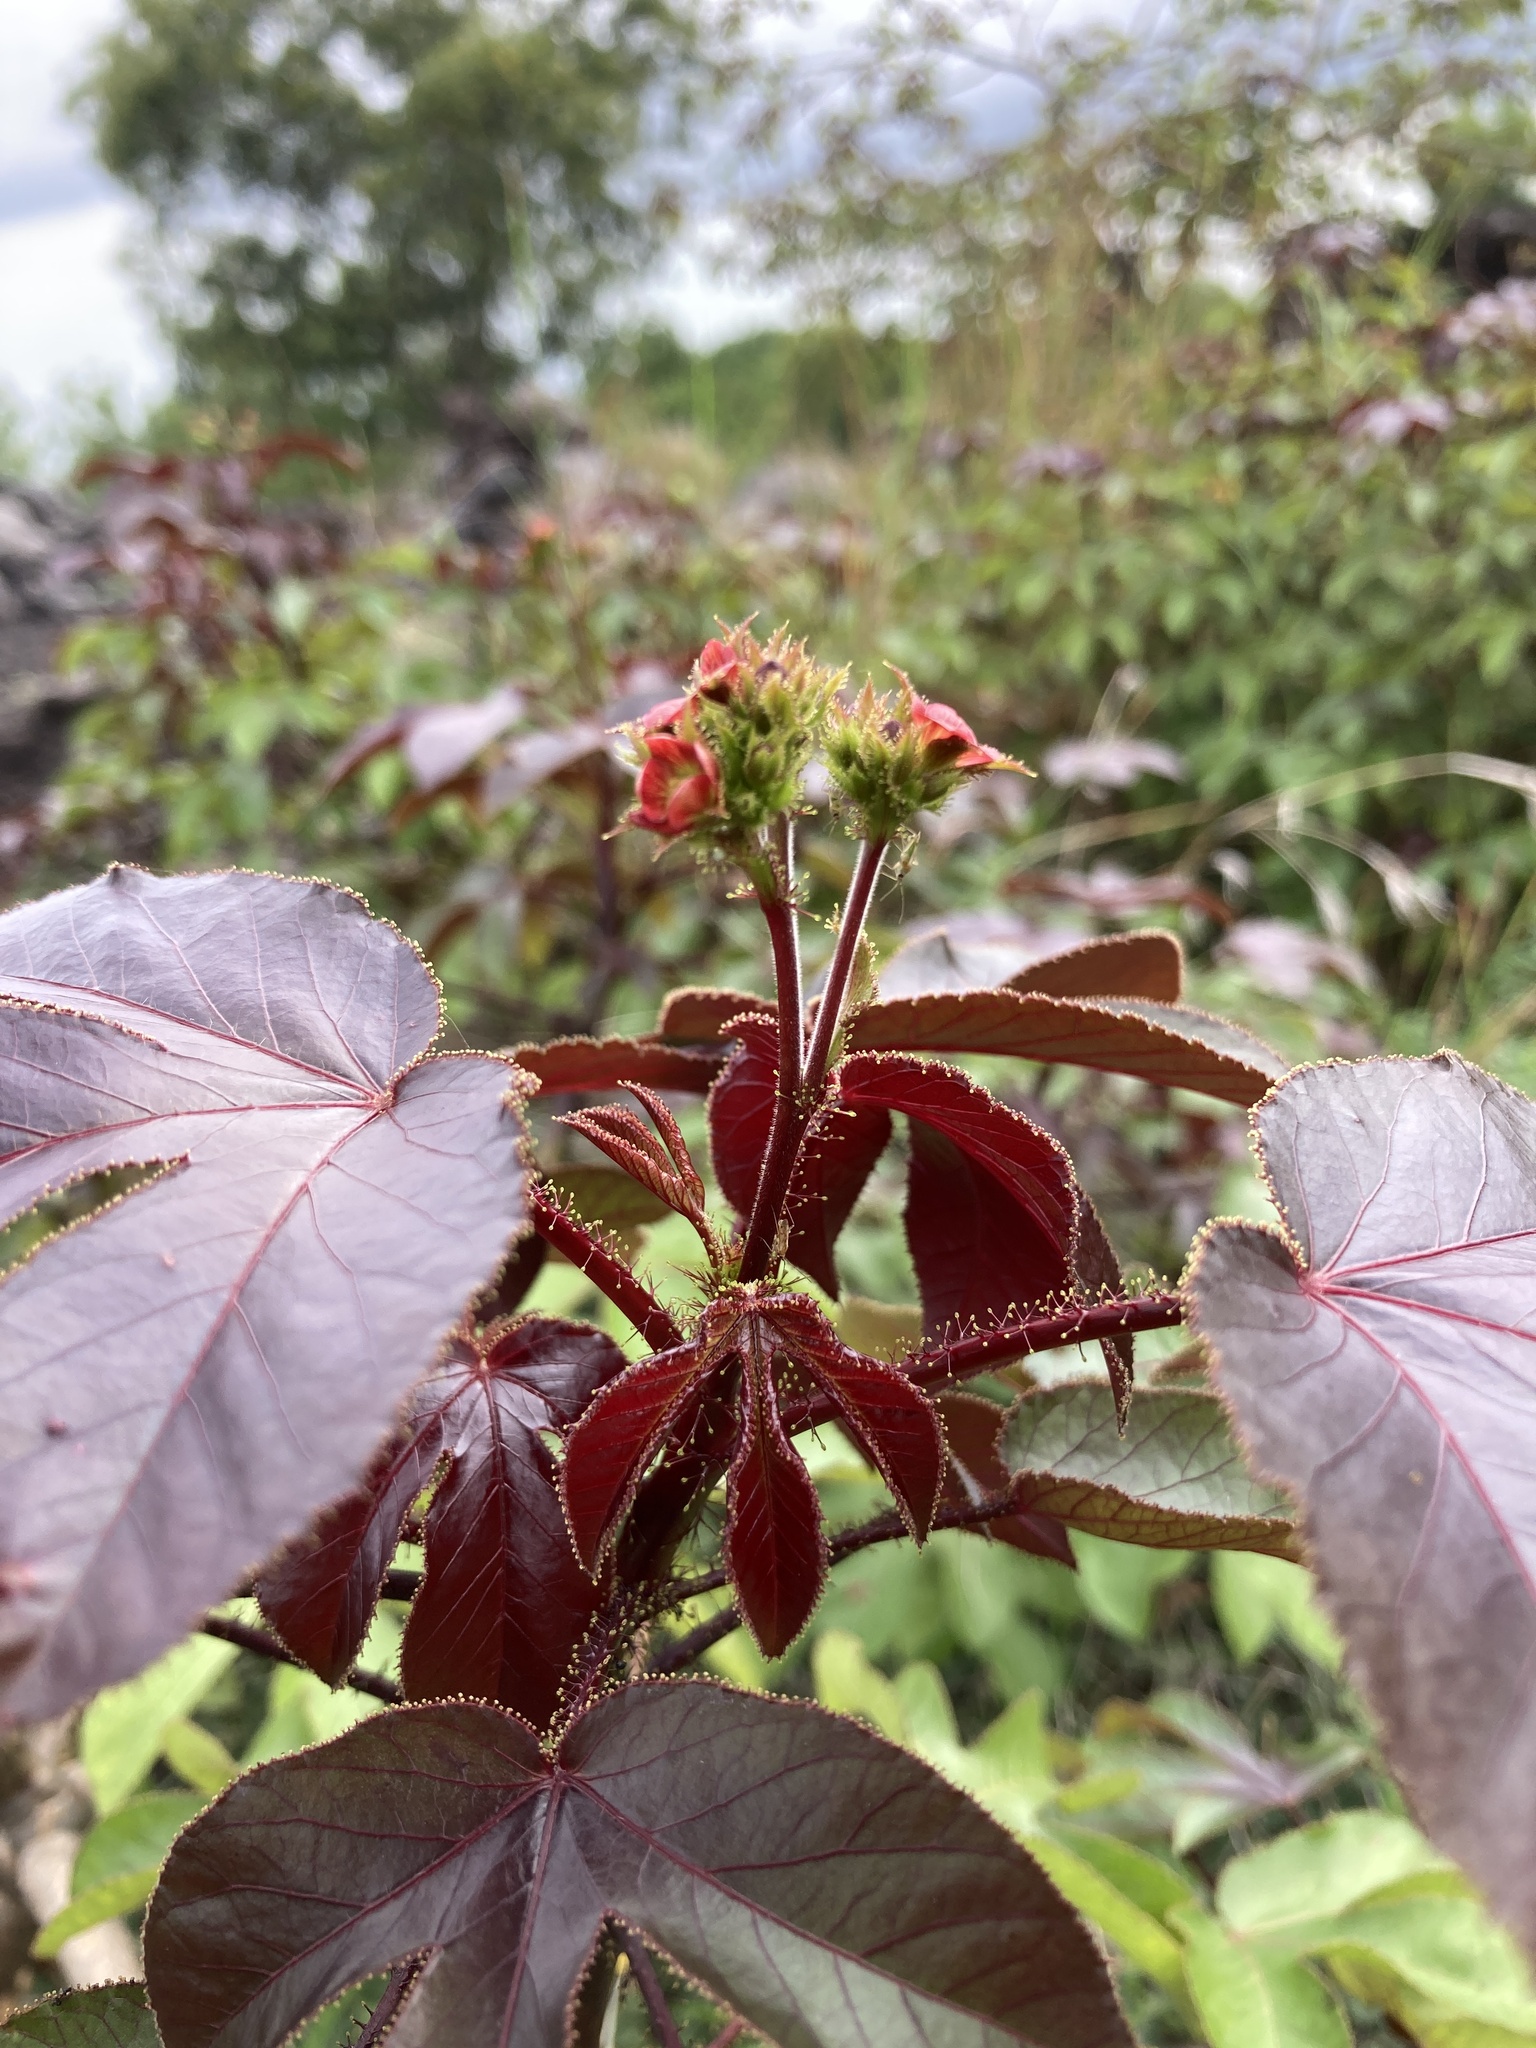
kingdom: Plantae
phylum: Tracheophyta
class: Magnoliopsida
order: Malpighiales
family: Euphorbiaceae
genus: Jatropha
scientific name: Jatropha gossypiifolia
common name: Bellyache bush
